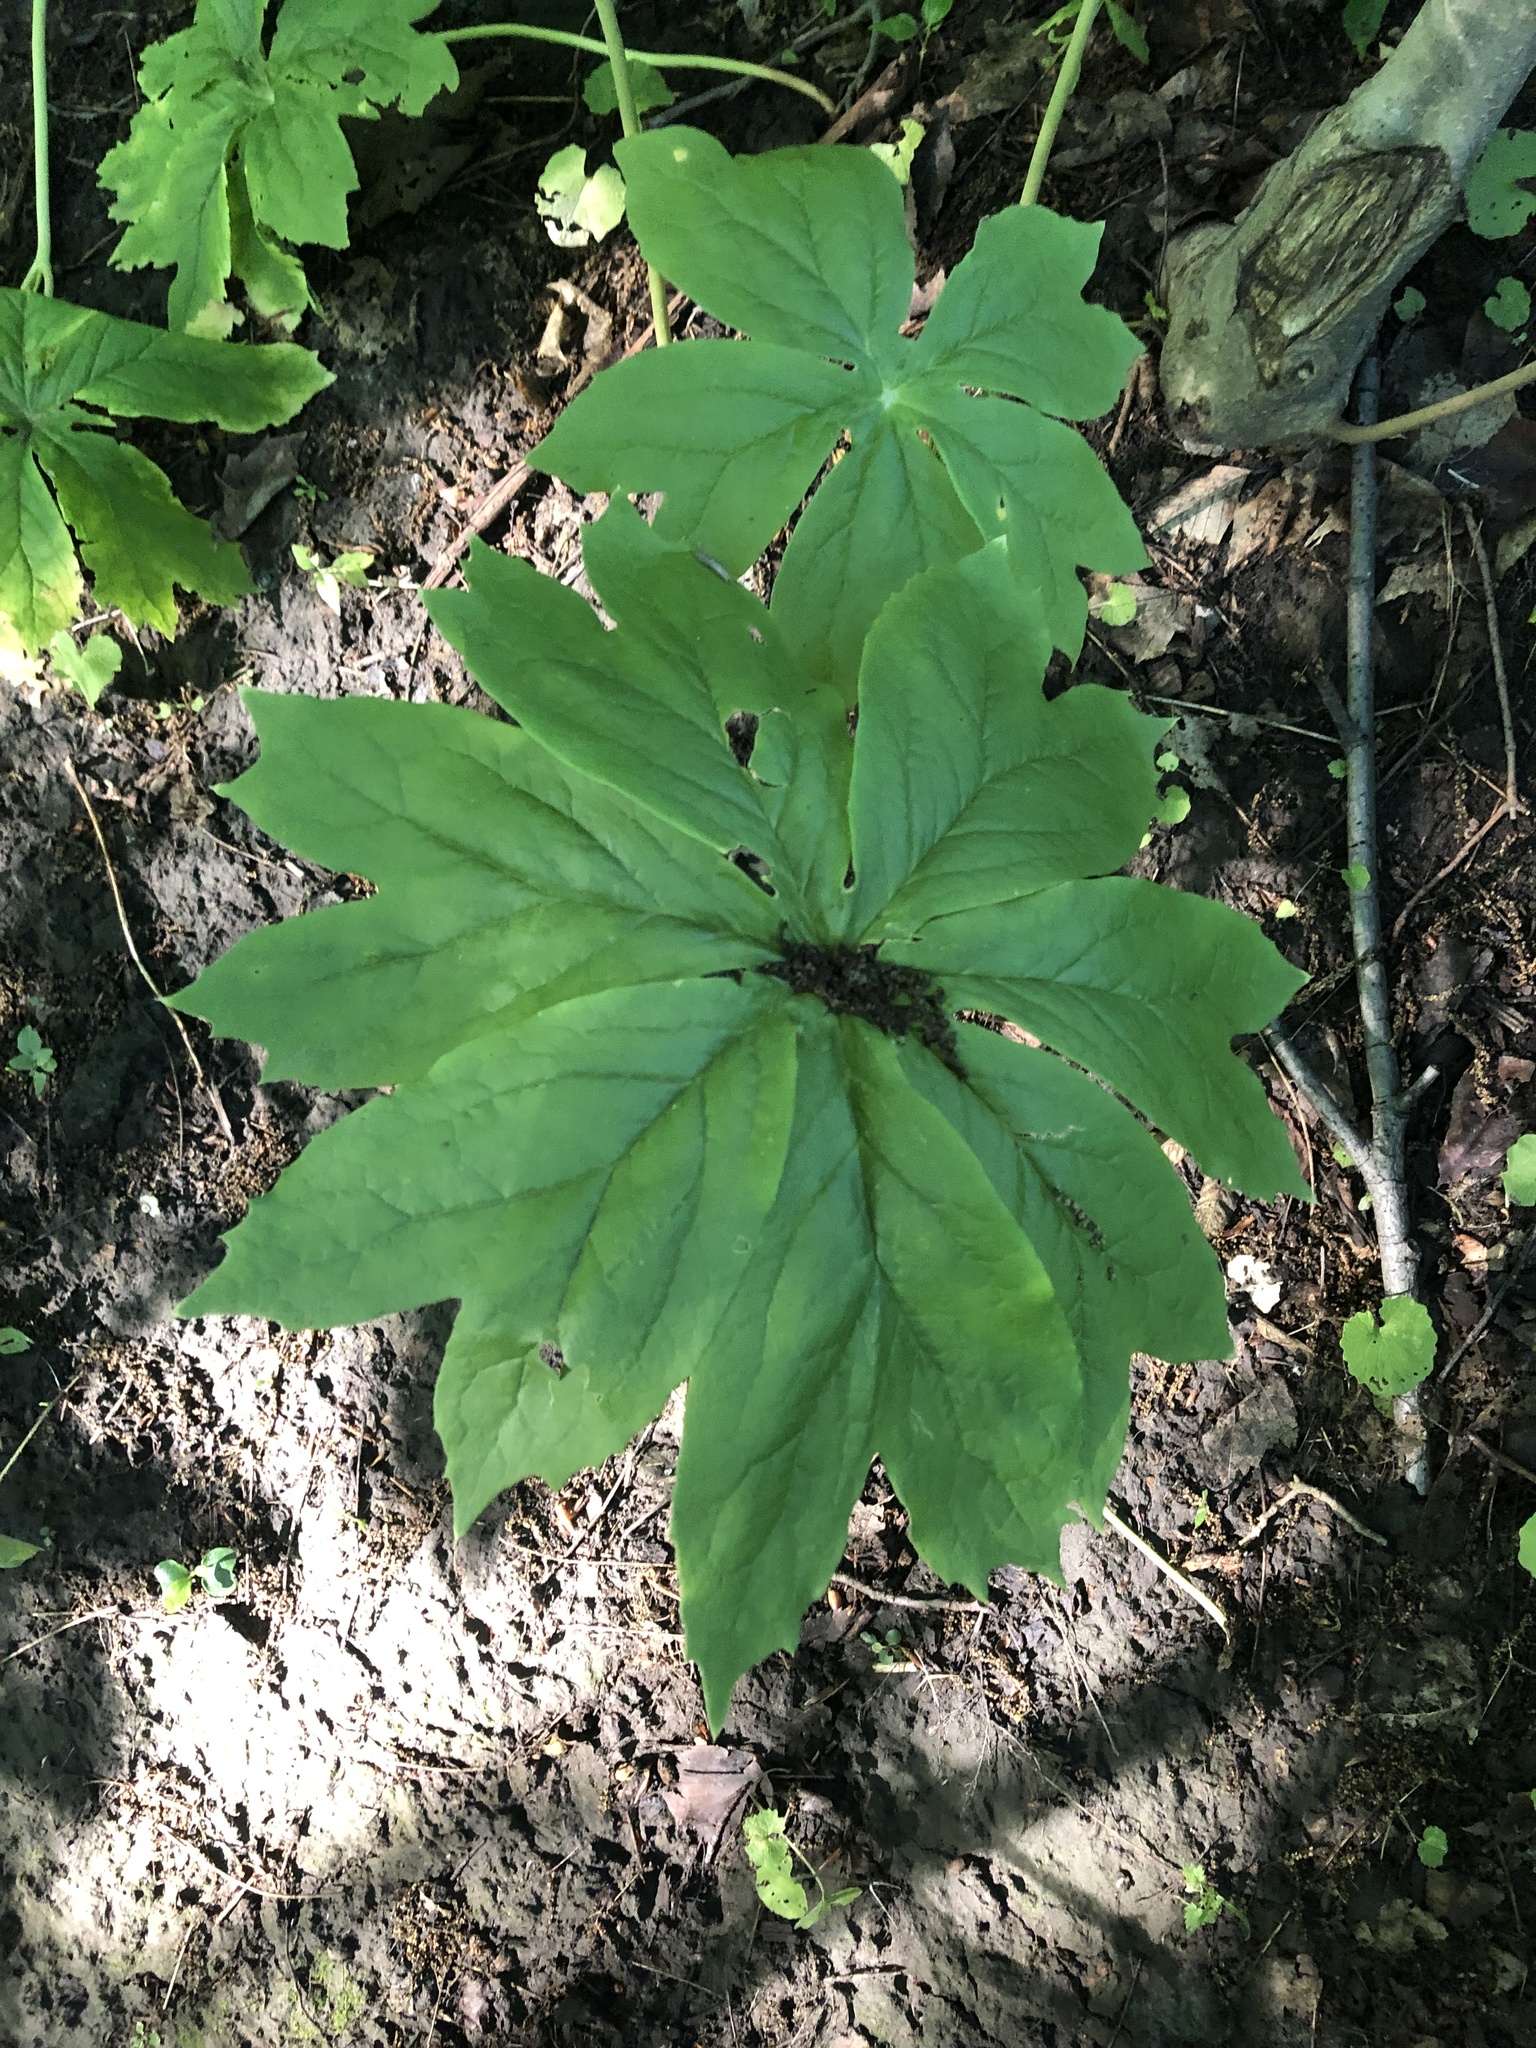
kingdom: Plantae
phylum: Tracheophyta
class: Magnoliopsida
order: Ranunculales
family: Berberidaceae
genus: Podophyllum
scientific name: Podophyllum peltatum
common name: Wild mandrake
